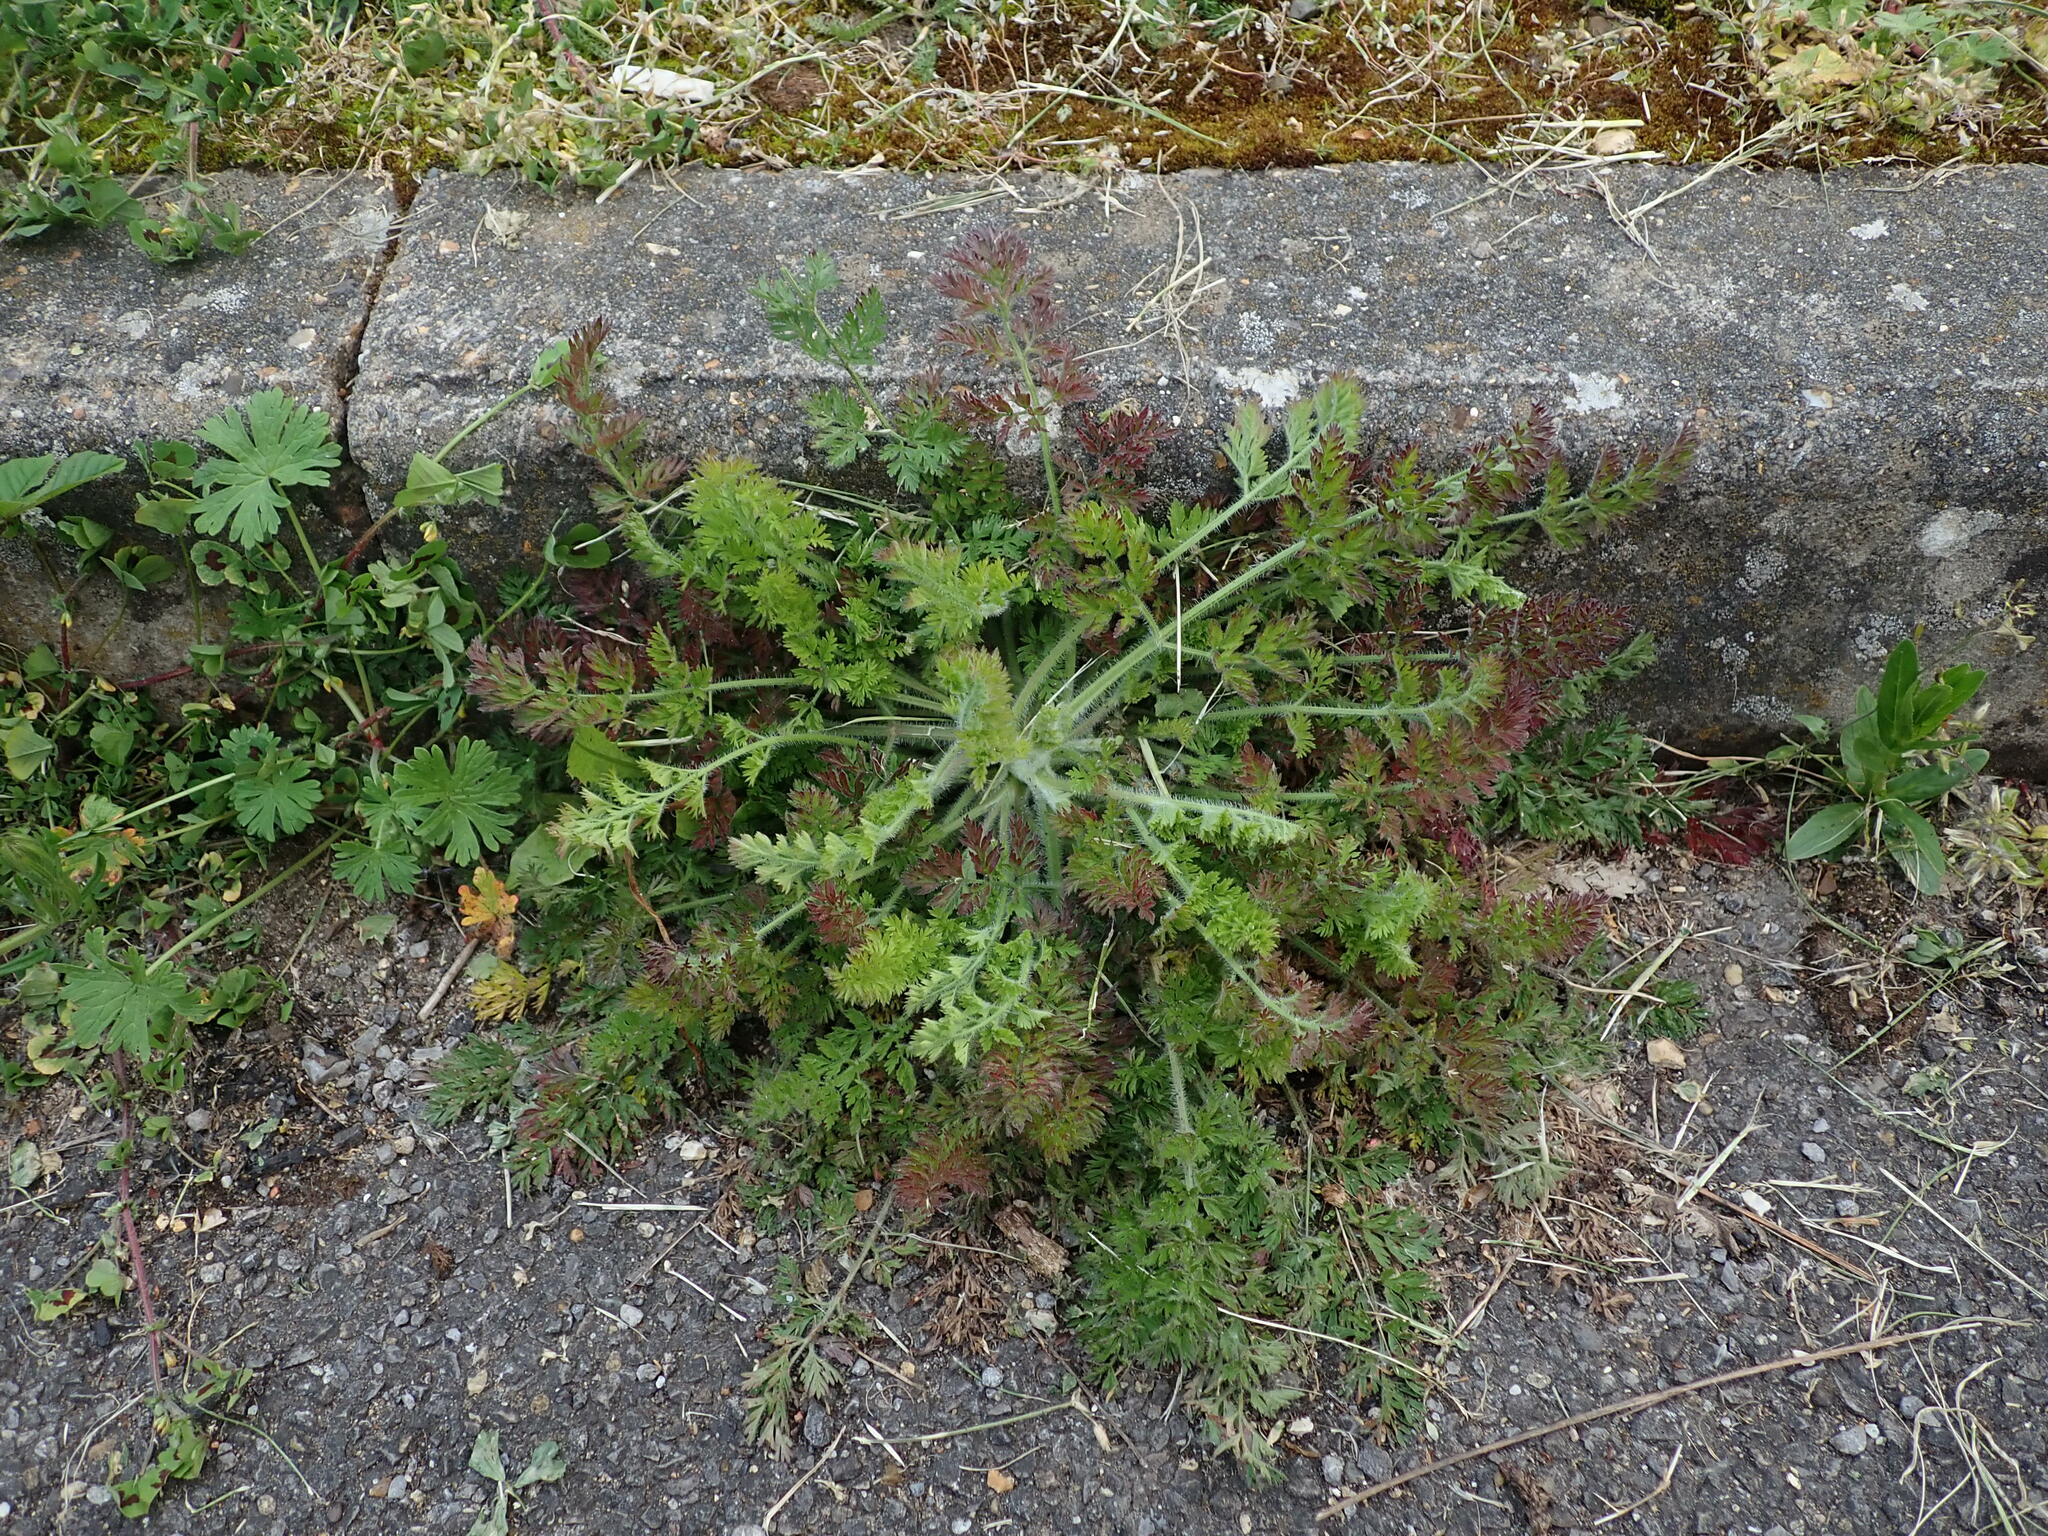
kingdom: Plantae
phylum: Tracheophyta
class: Magnoliopsida
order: Apiales
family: Apiaceae
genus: Daucus
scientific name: Daucus carota
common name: Wild carrot
